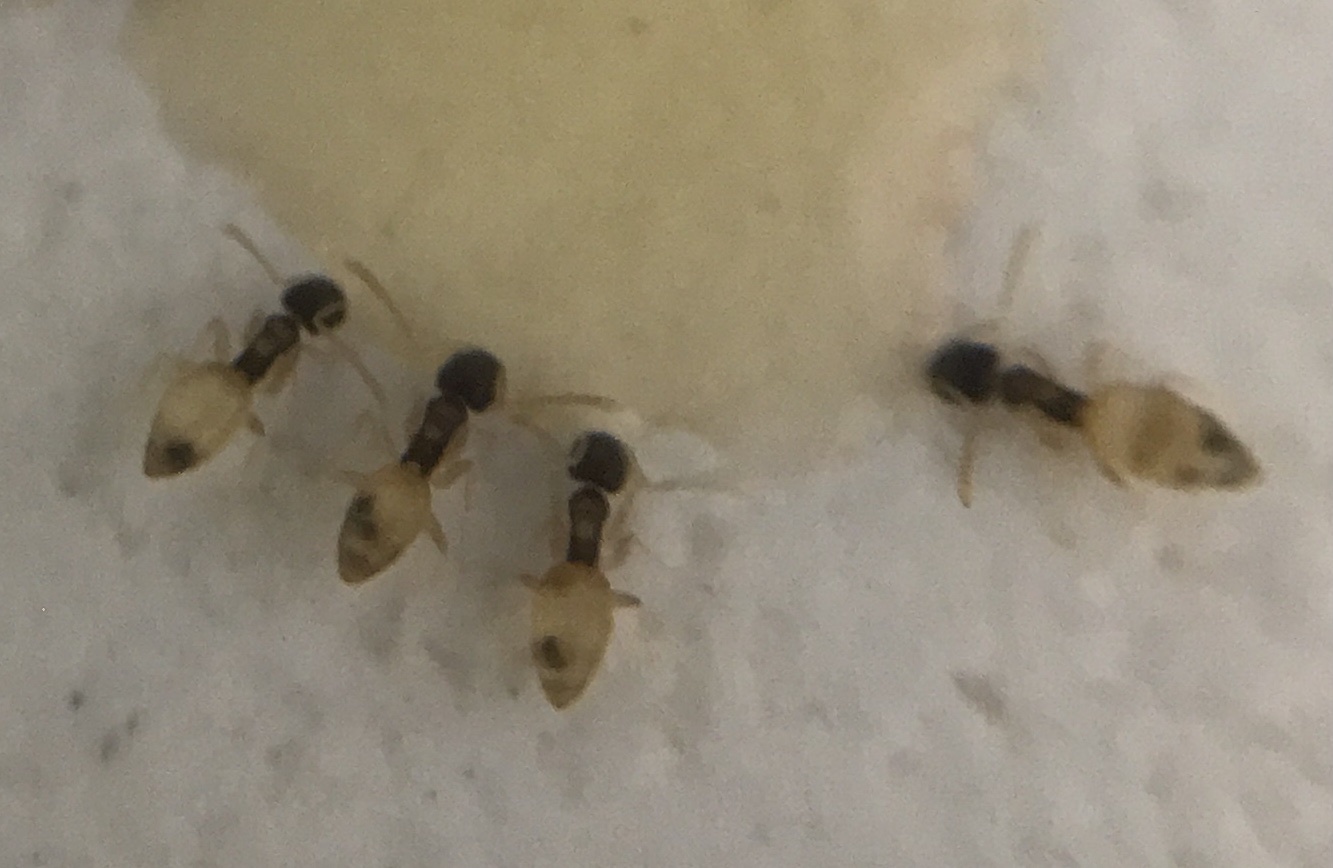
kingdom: Animalia
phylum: Arthropoda
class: Insecta
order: Hymenoptera
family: Formicidae
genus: Tapinoma
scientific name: Tapinoma melanocephalum
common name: Ghost ant
